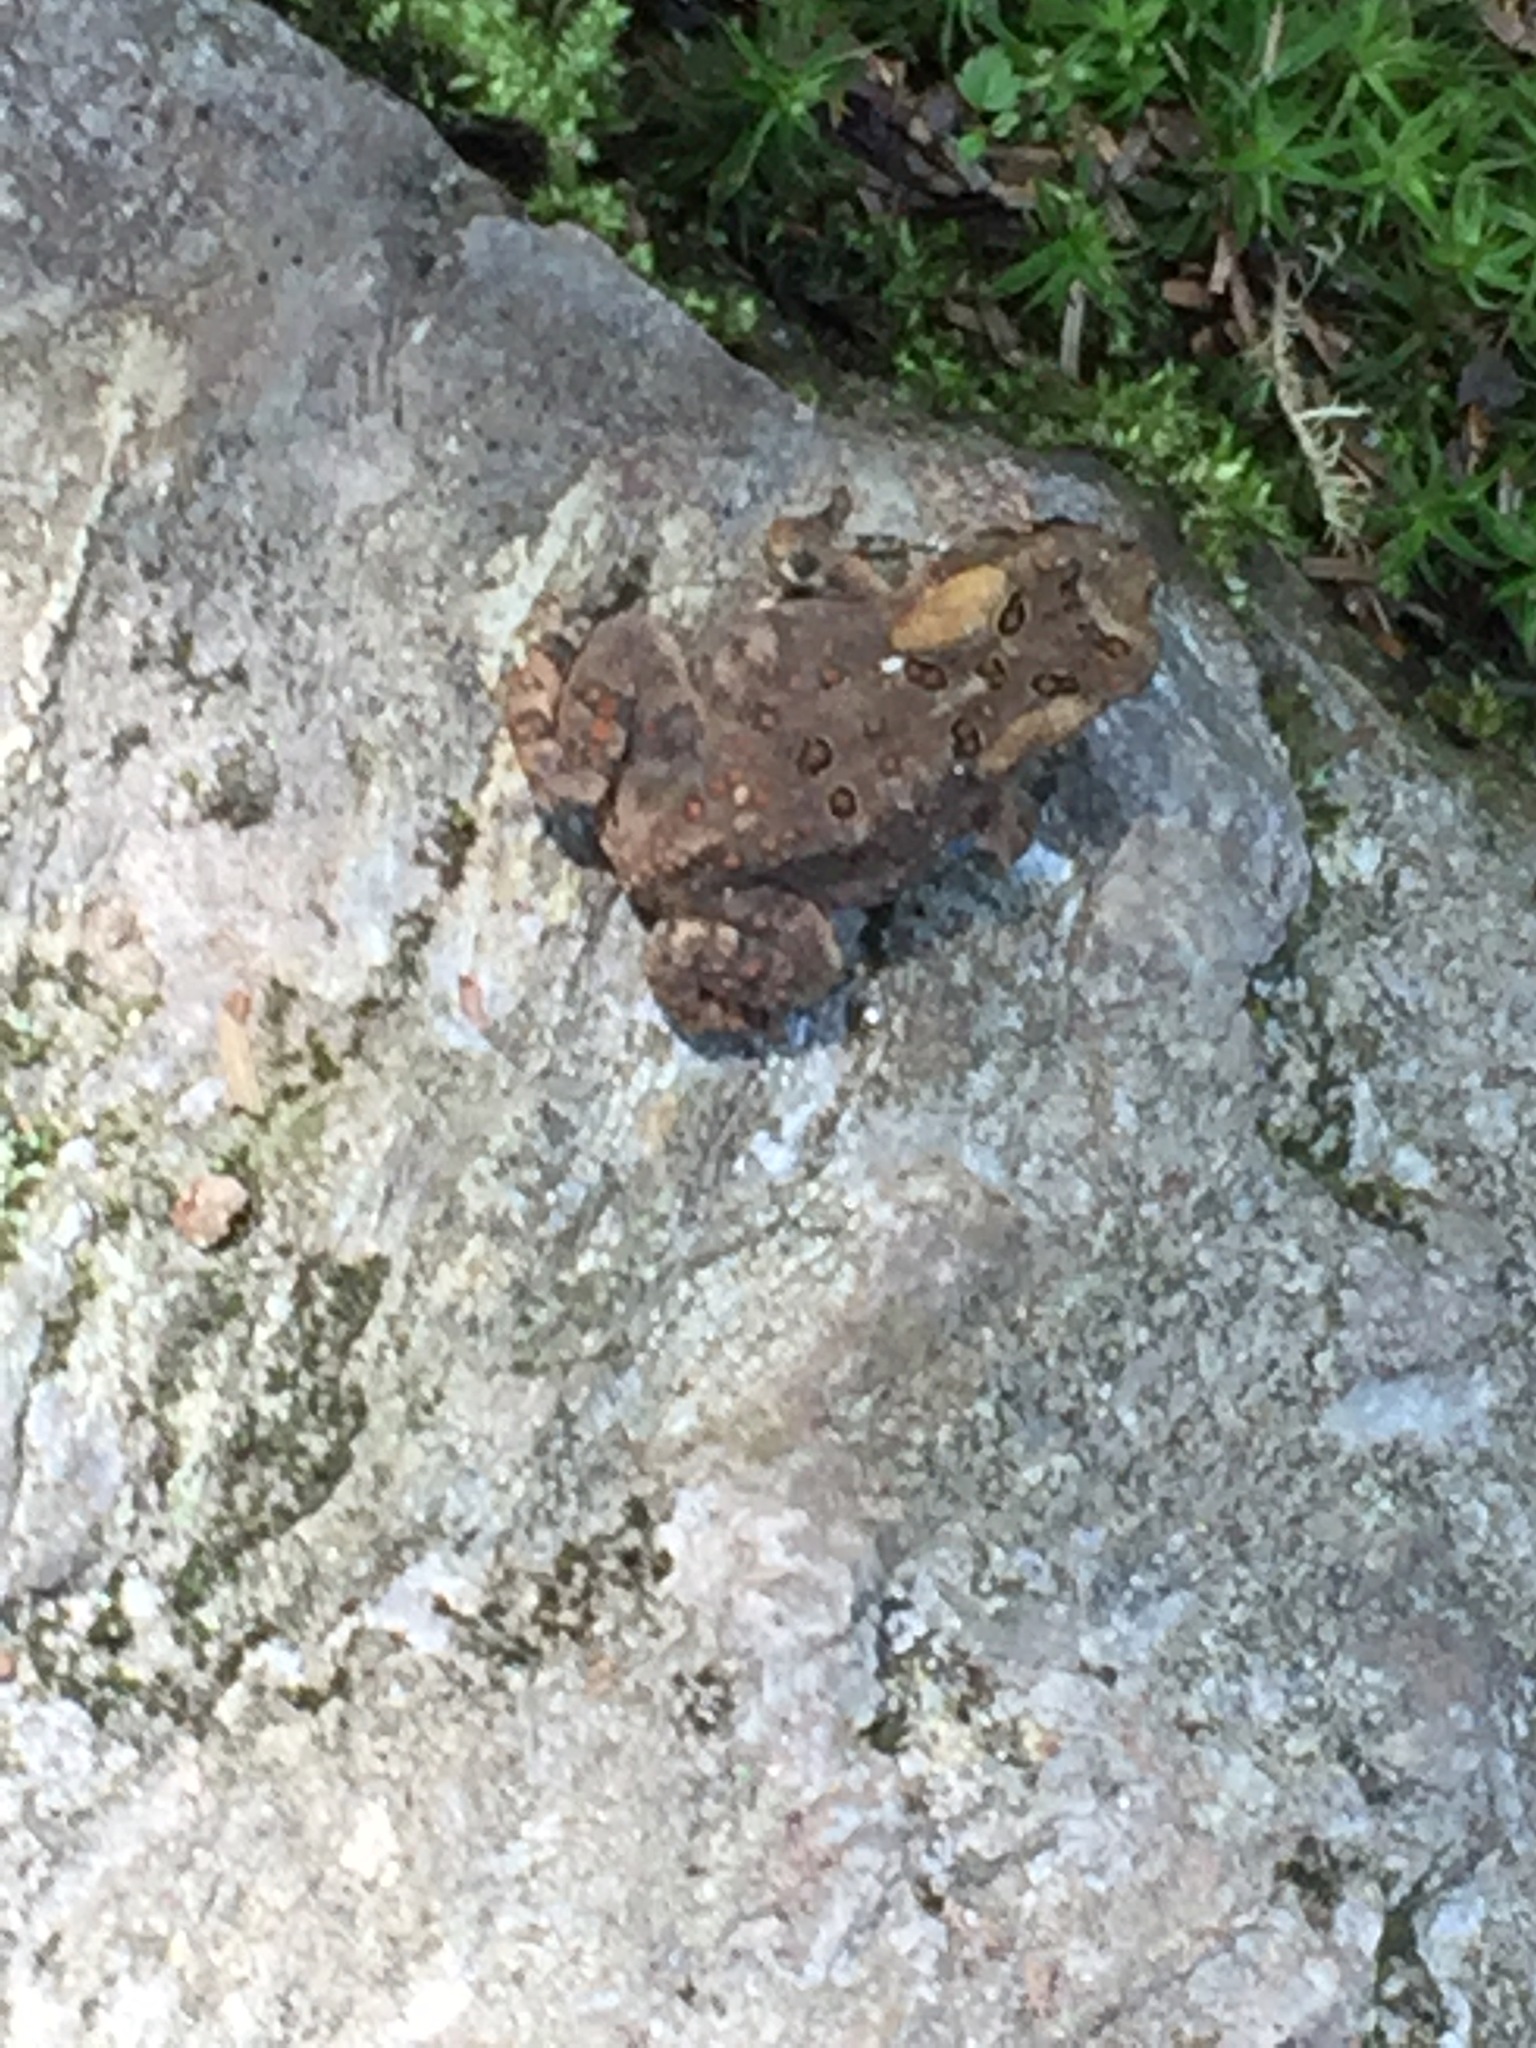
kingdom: Animalia
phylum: Chordata
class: Amphibia
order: Anura
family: Bufonidae
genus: Anaxyrus
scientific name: Anaxyrus americanus
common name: American toad
